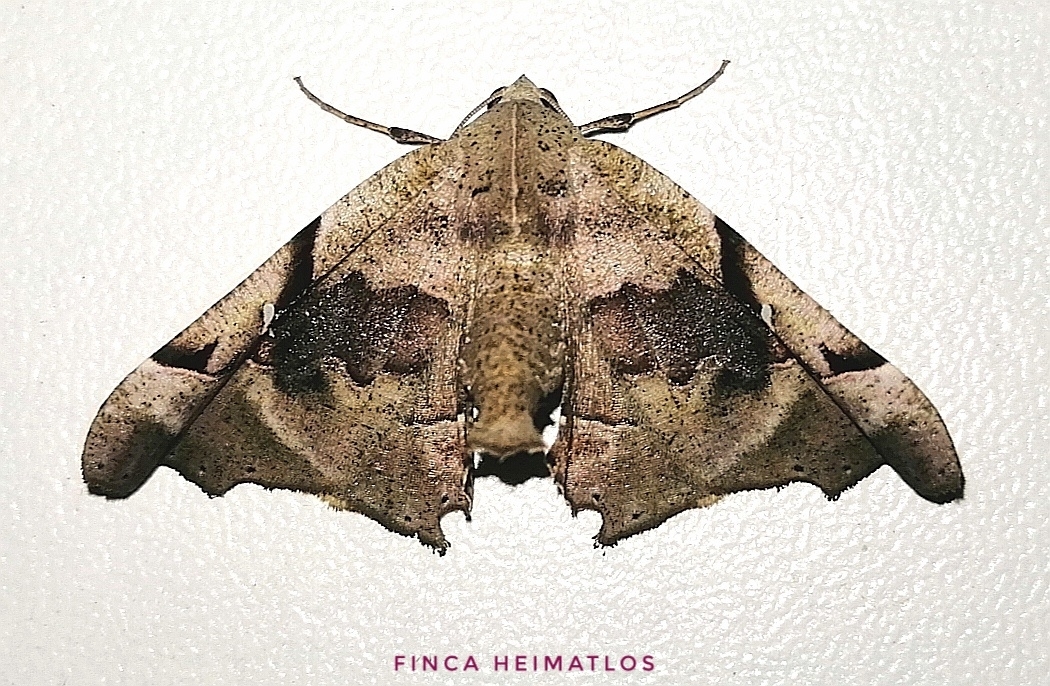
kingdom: Animalia
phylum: Arthropoda
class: Insecta
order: Lepidoptera
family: Geometridae
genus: Pero
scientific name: Pero incisa
